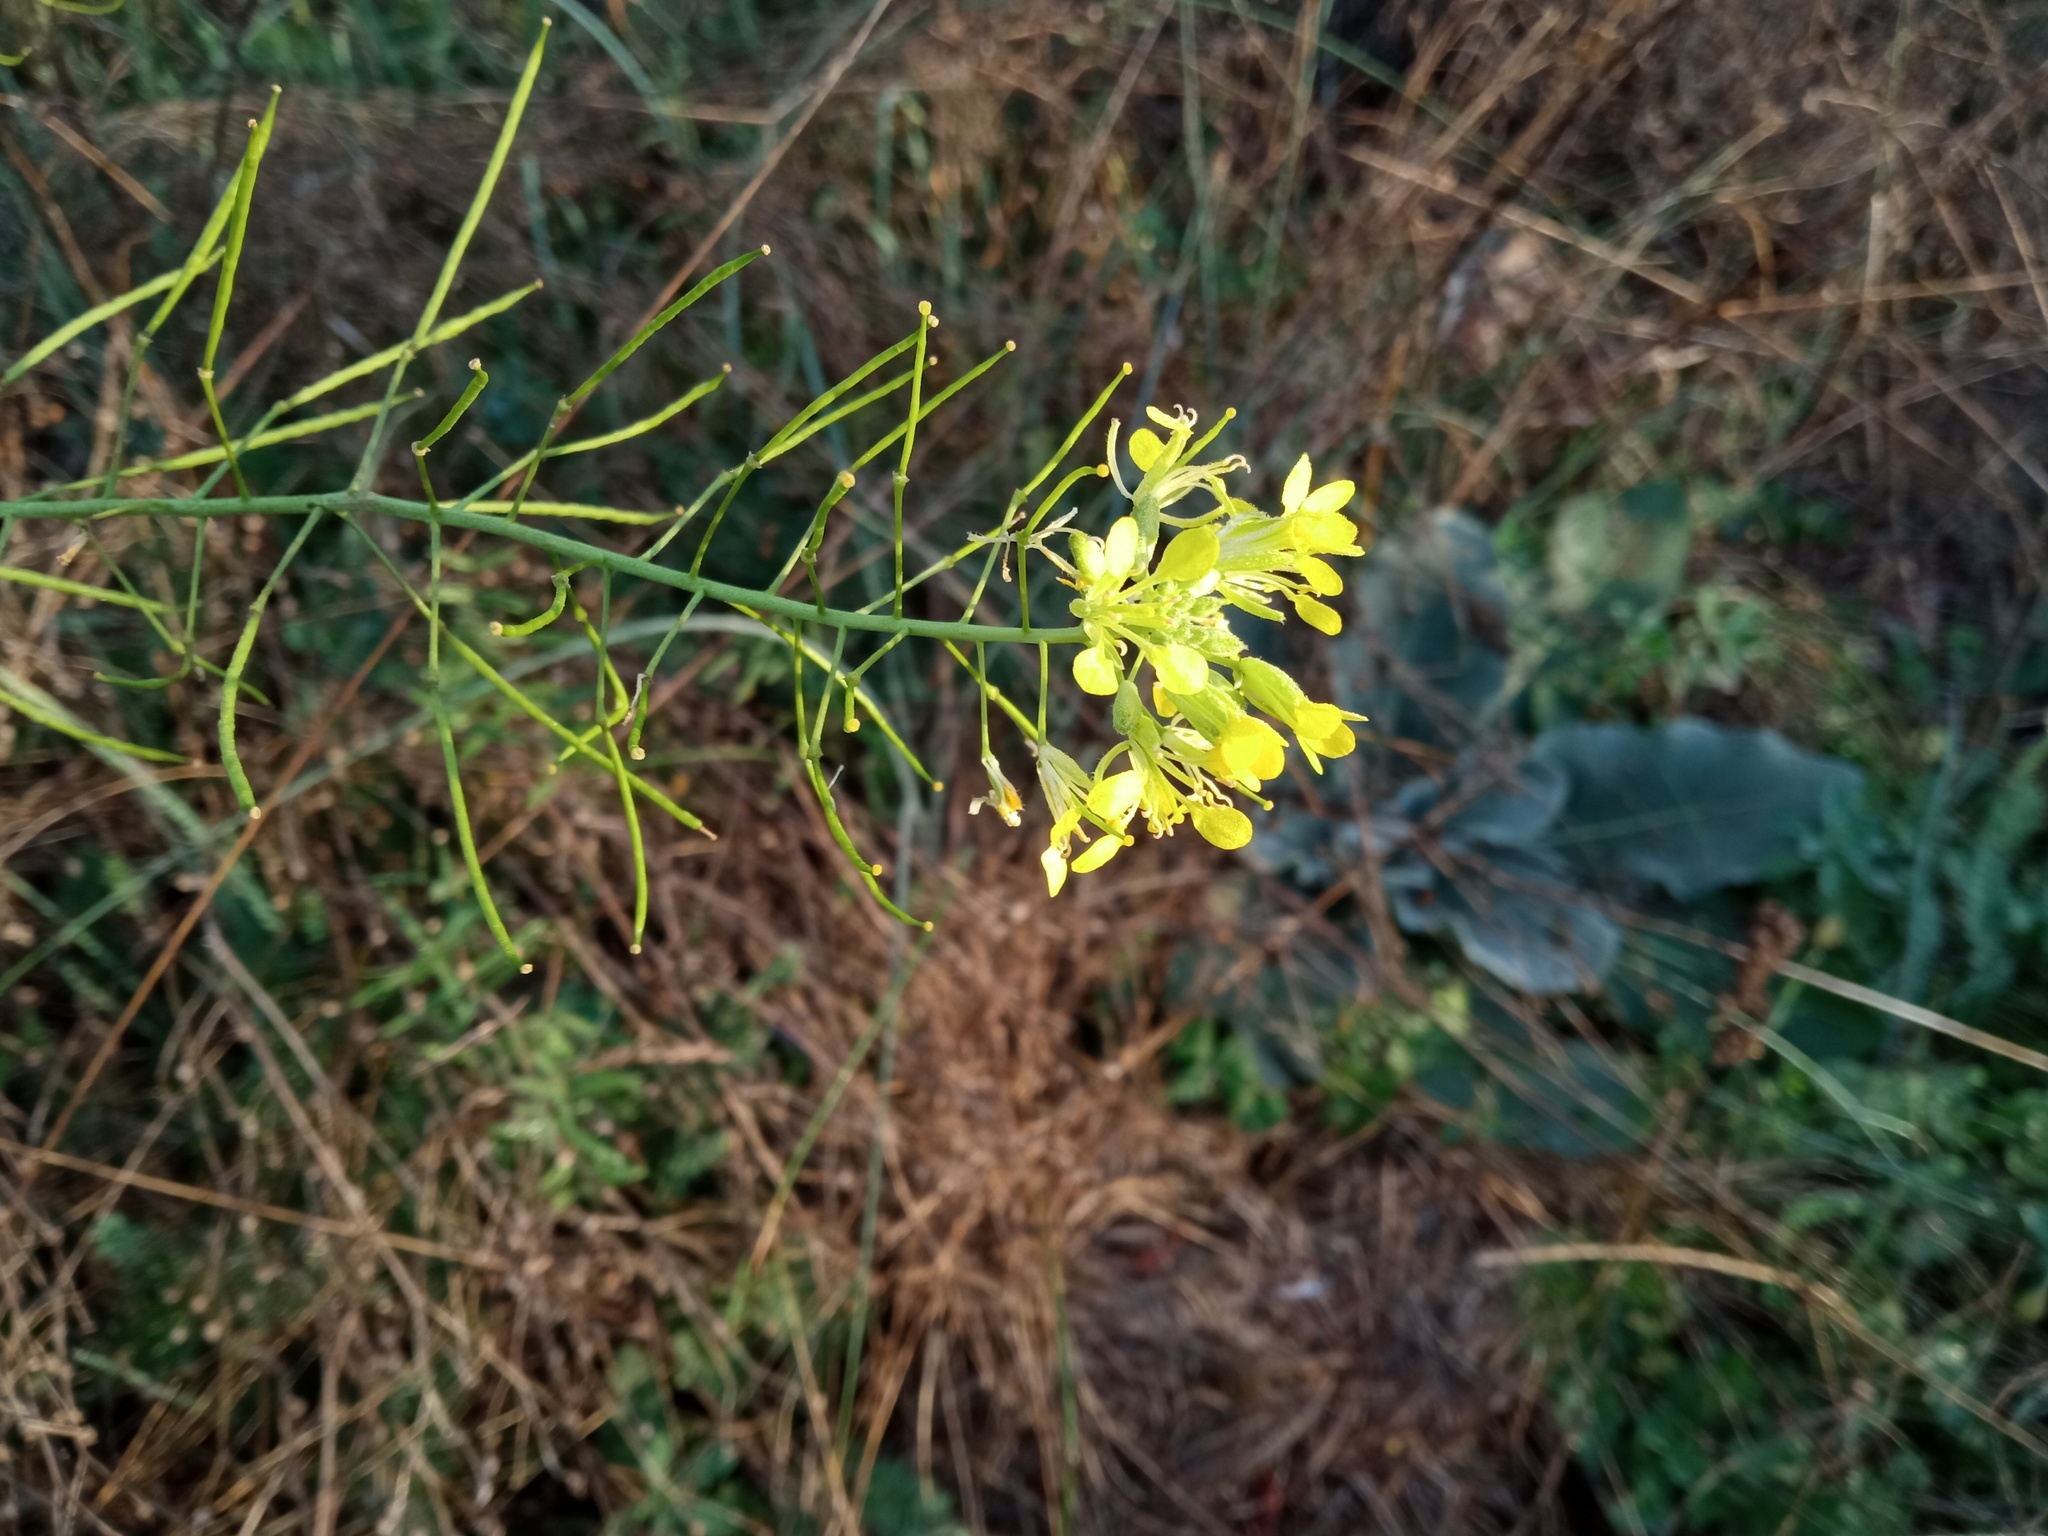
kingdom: Plantae
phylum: Tracheophyta
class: Magnoliopsida
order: Brassicales
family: Brassicaceae
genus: Erucastrum
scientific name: Erucastrum nasturtiifolium
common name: Watercress-leaf rocket
